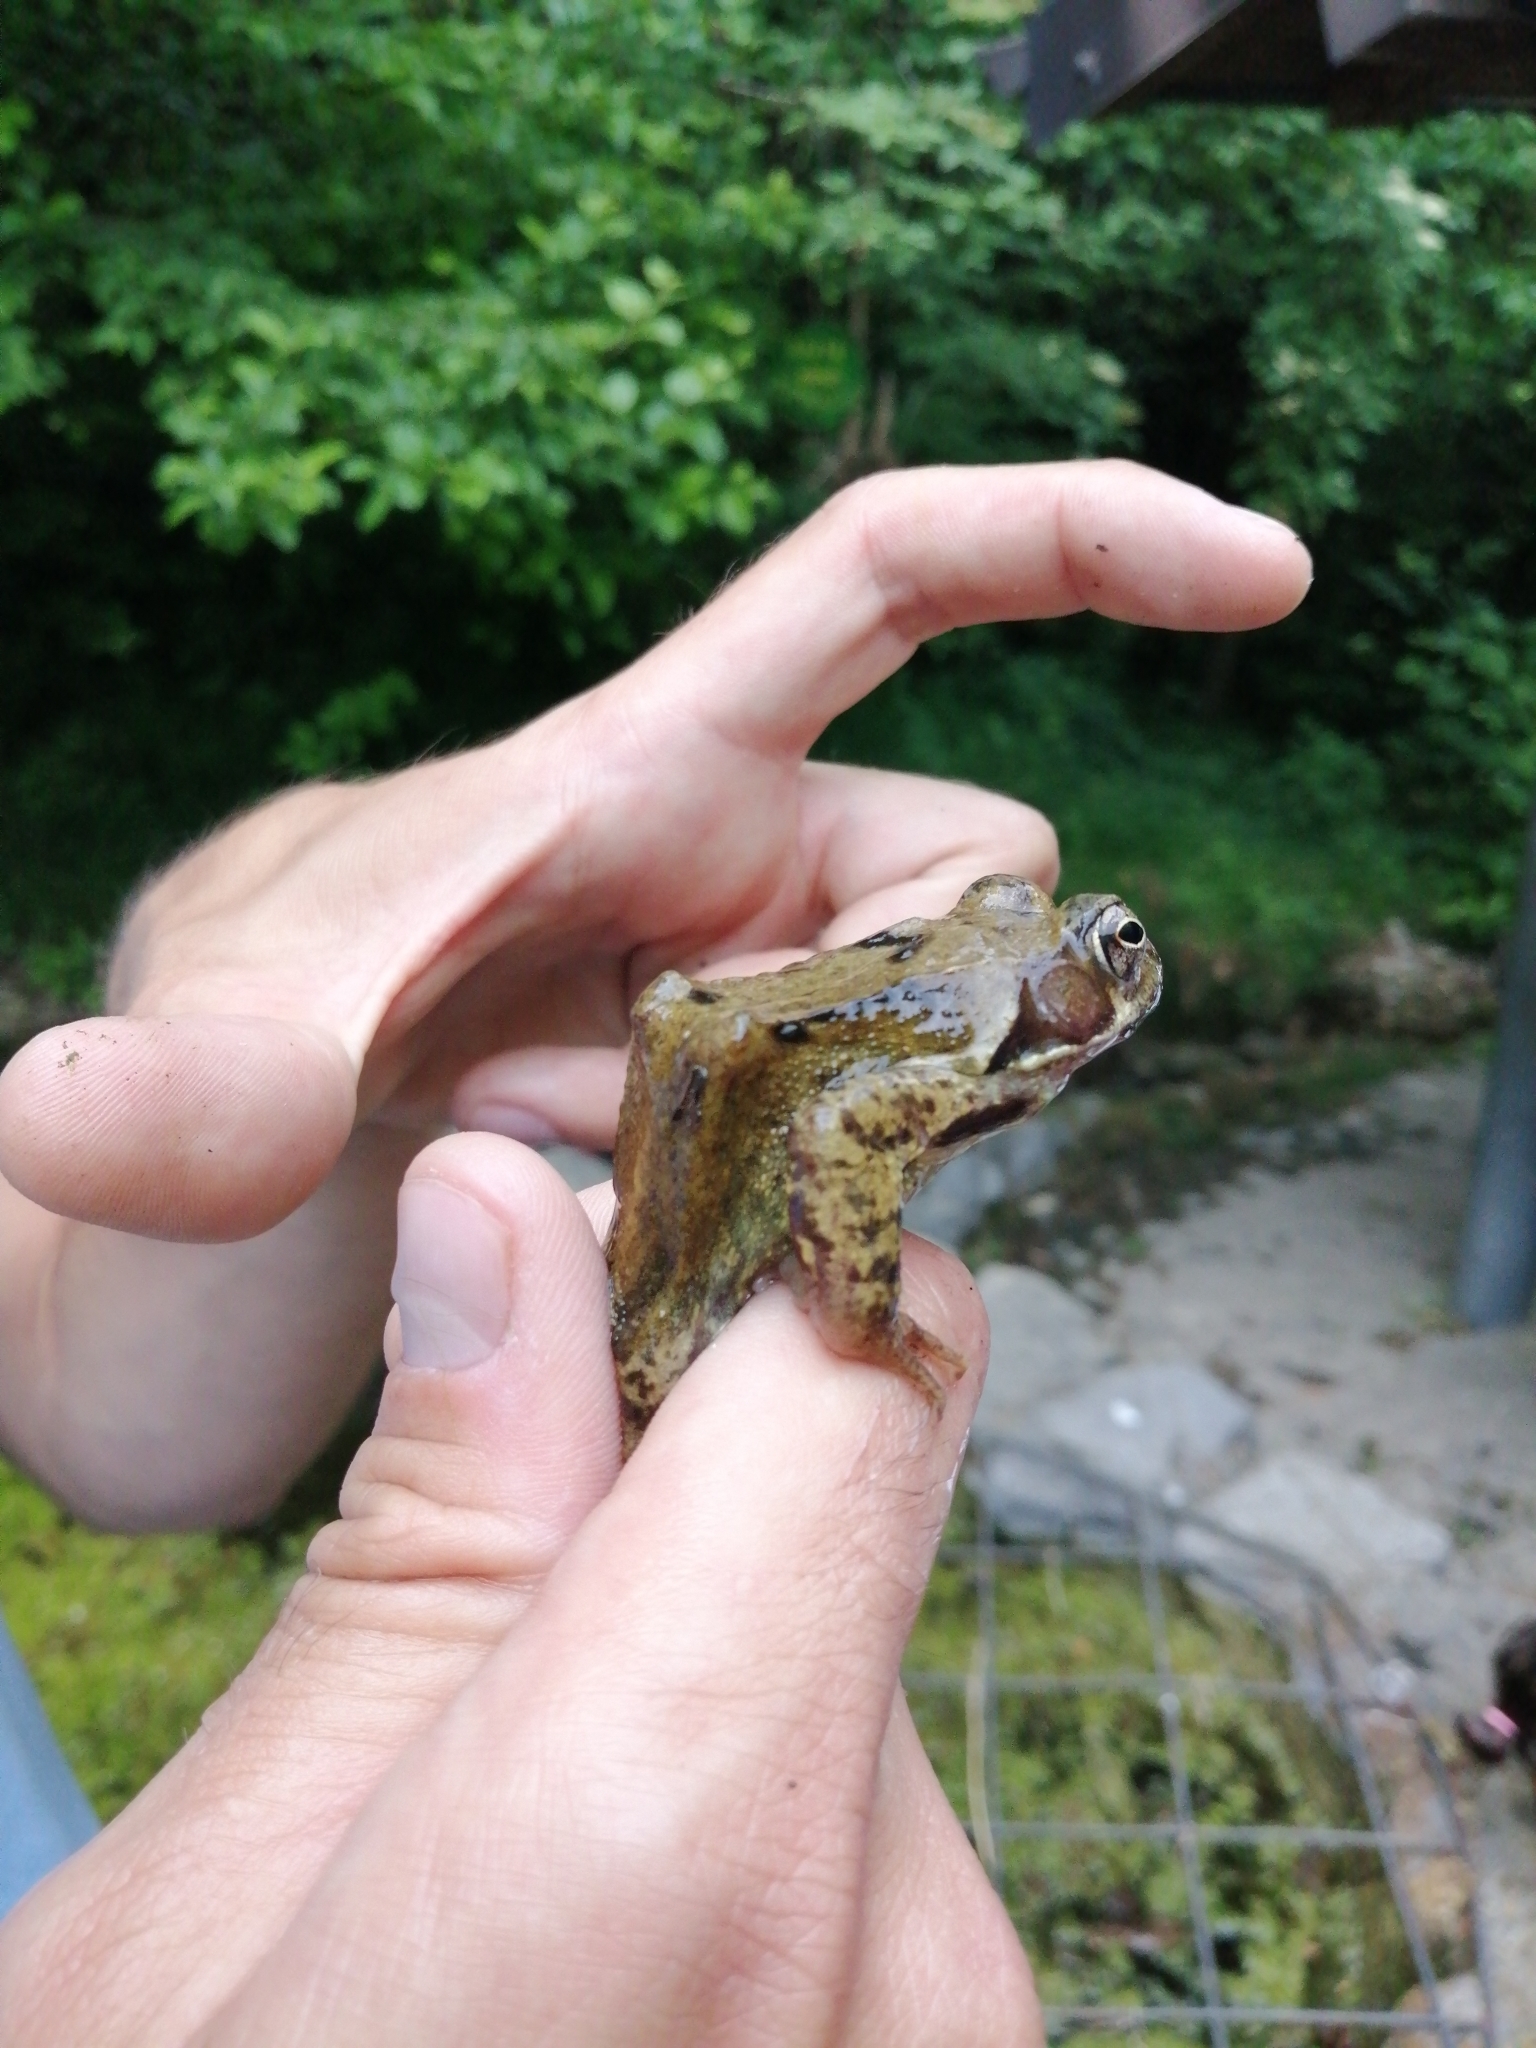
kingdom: Animalia
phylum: Chordata
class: Amphibia
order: Anura
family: Ranidae
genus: Rana
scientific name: Rana temporaria
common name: Common frog
